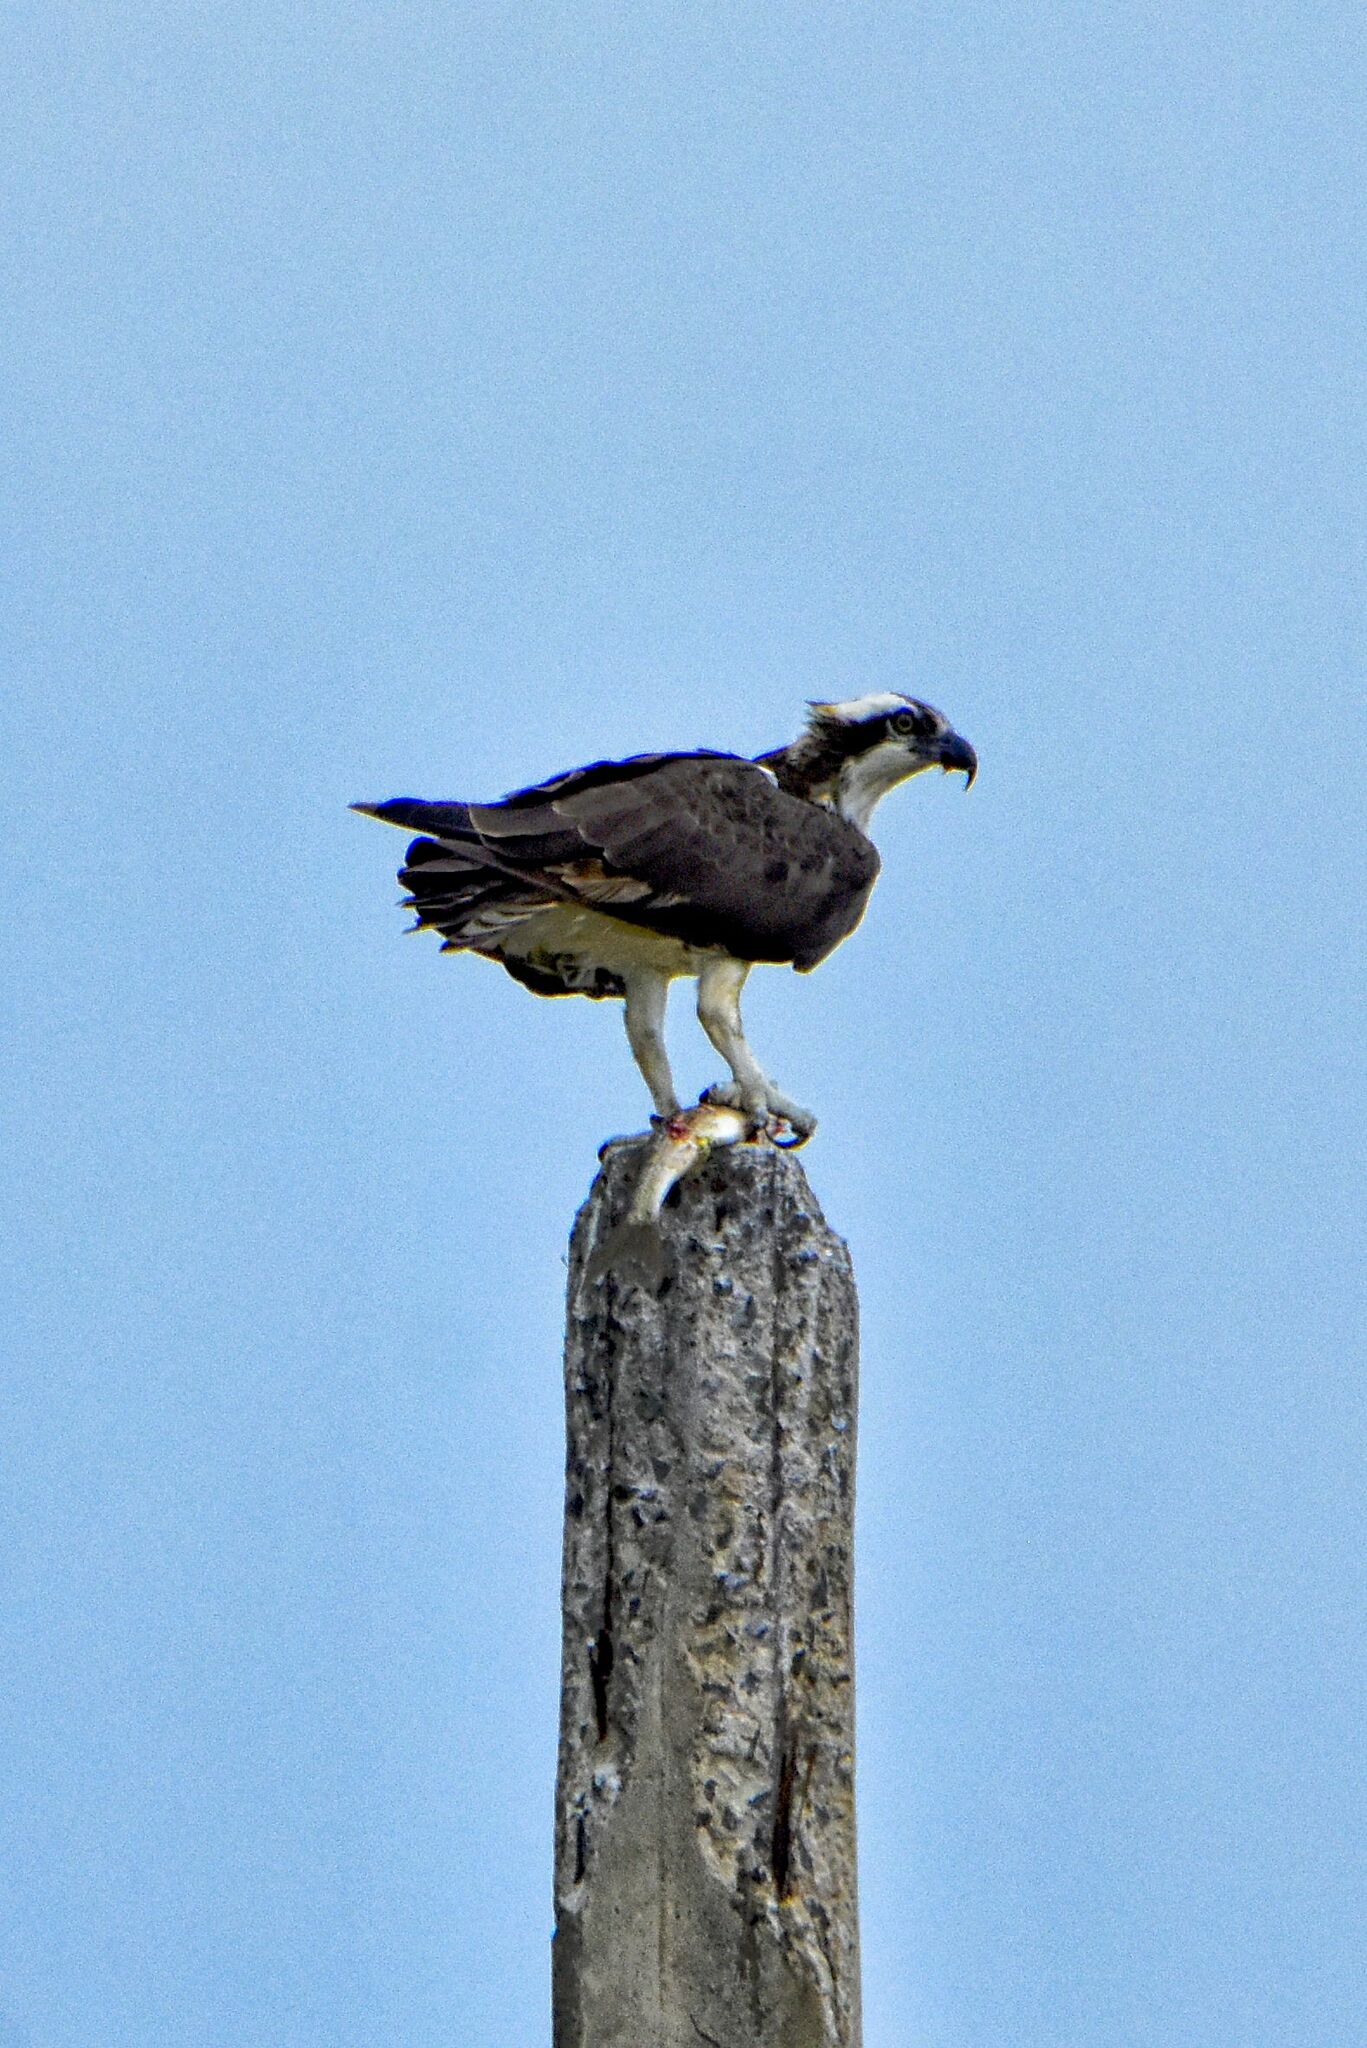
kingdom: Animalia
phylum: Chordata
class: Aves
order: Accipitriformes
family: Pandionidae
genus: Pandion
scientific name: Pandion haliaetus
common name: Osprey
